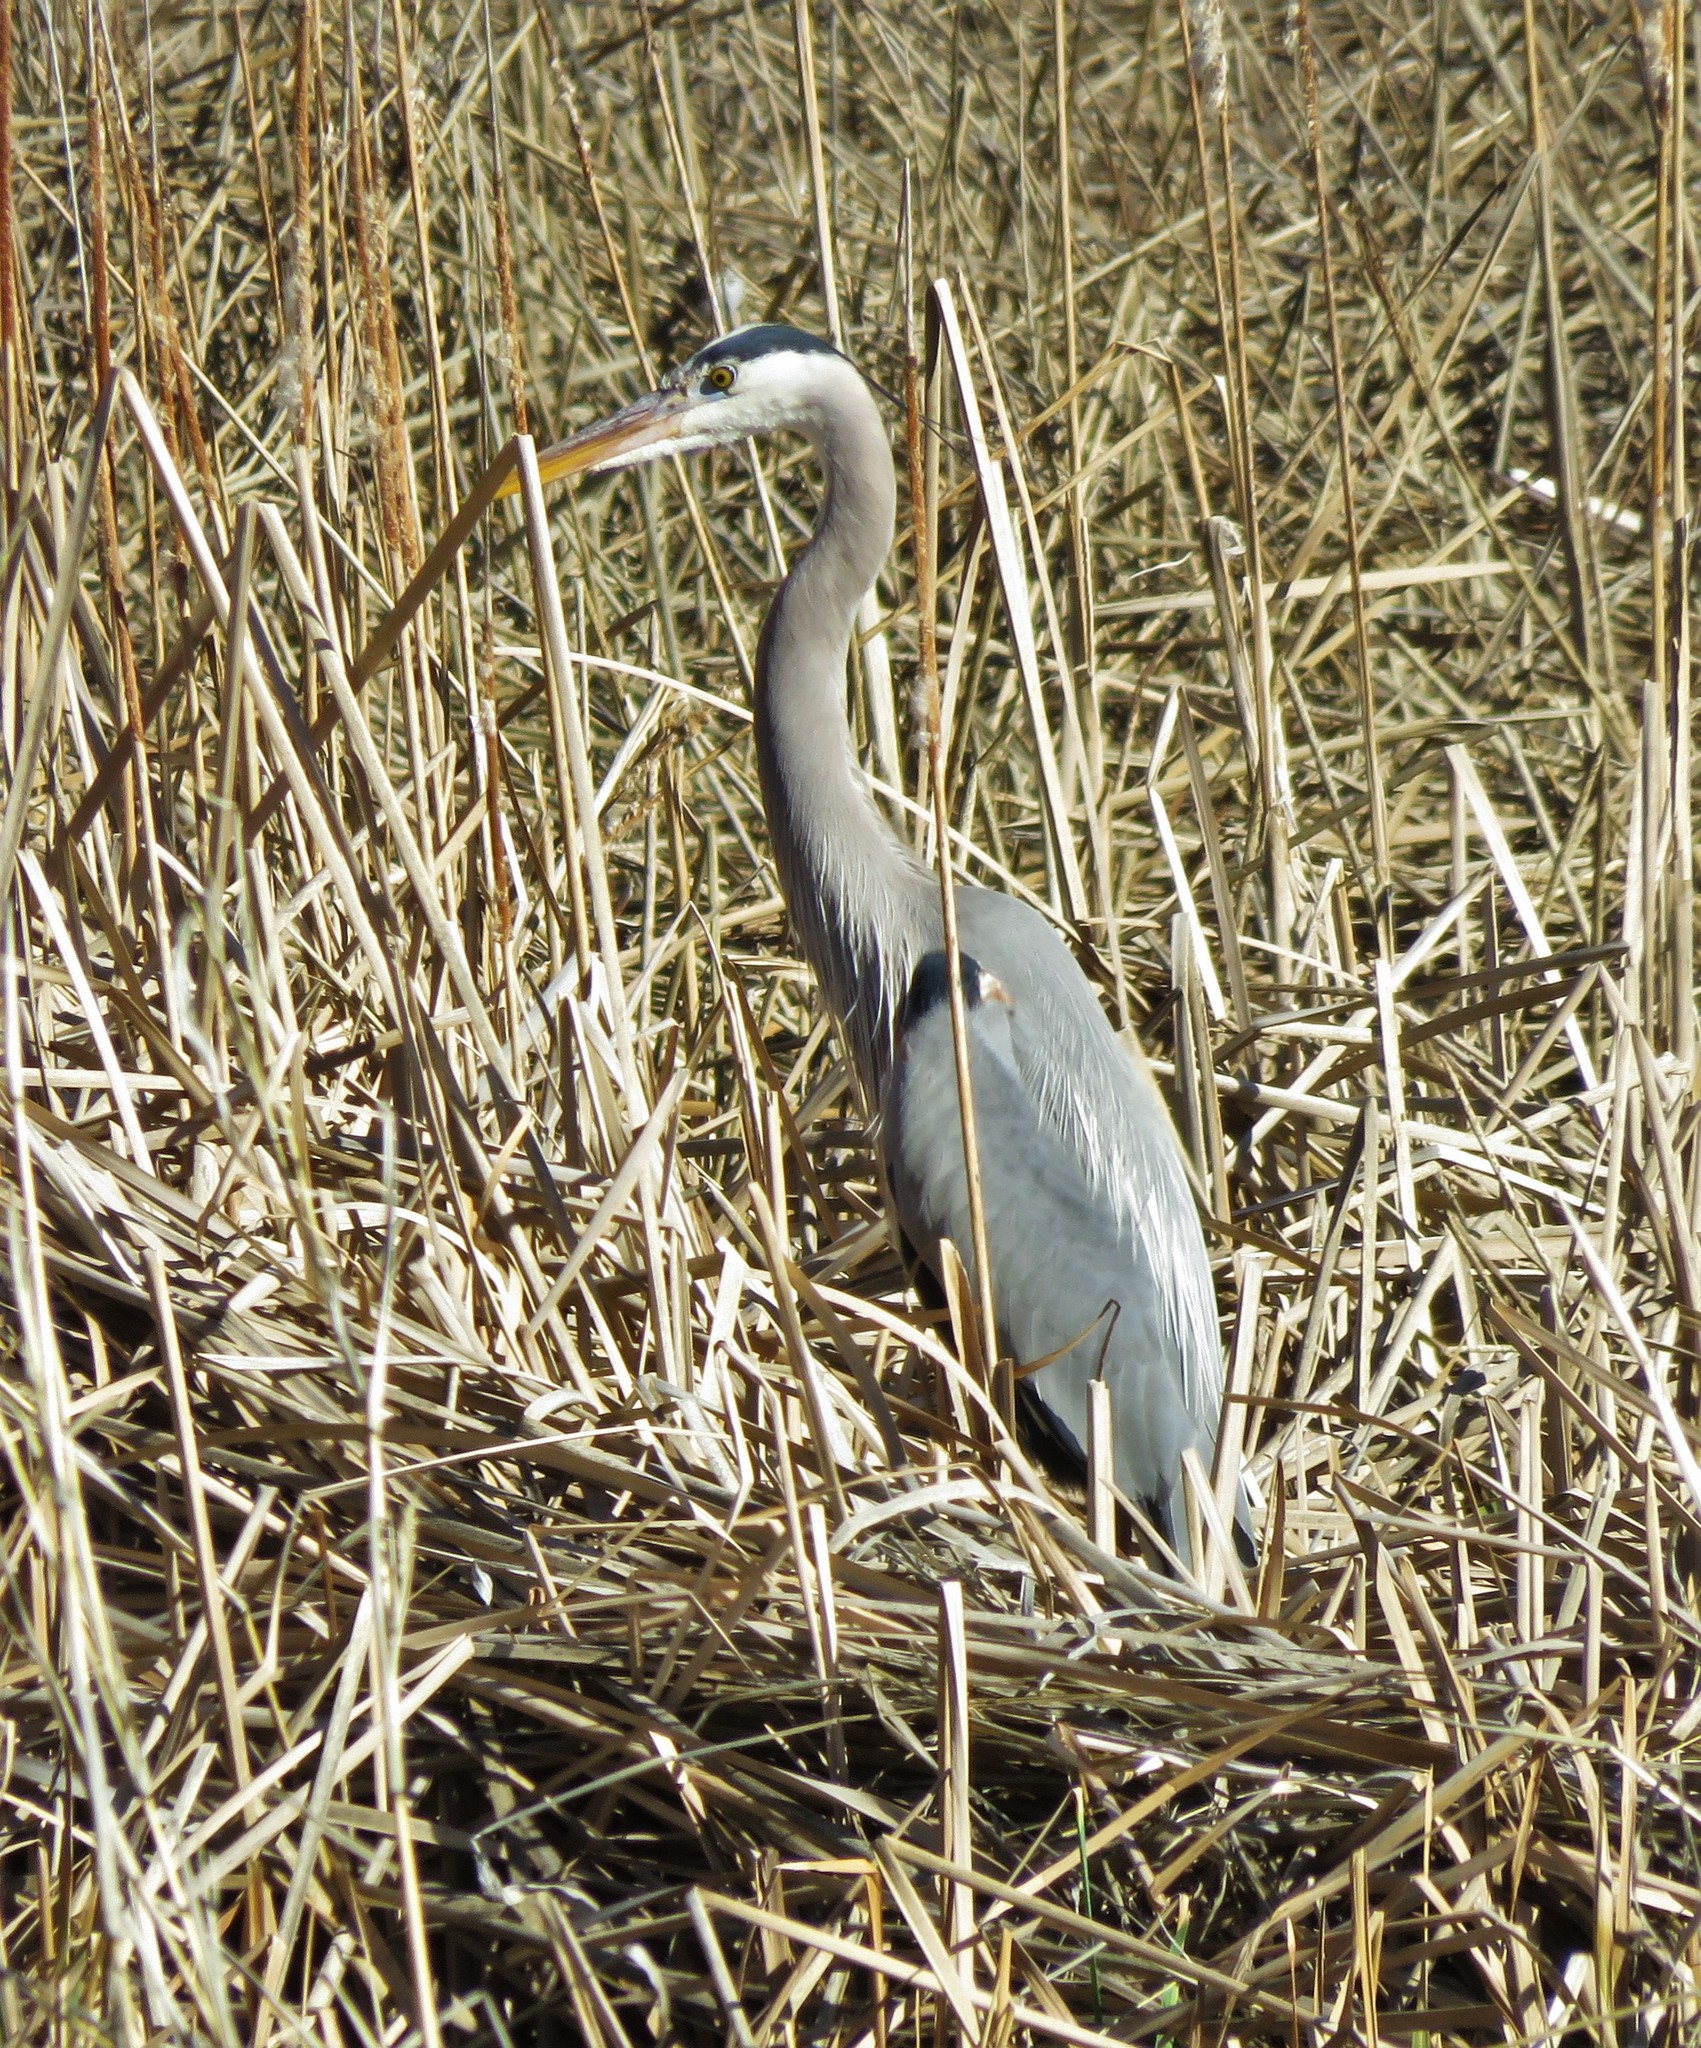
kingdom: Animalia
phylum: Chordata
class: Aves
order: Pelecaniformes
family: Ardeidae
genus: Ardea
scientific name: Ardea herodias
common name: Great blue heron
